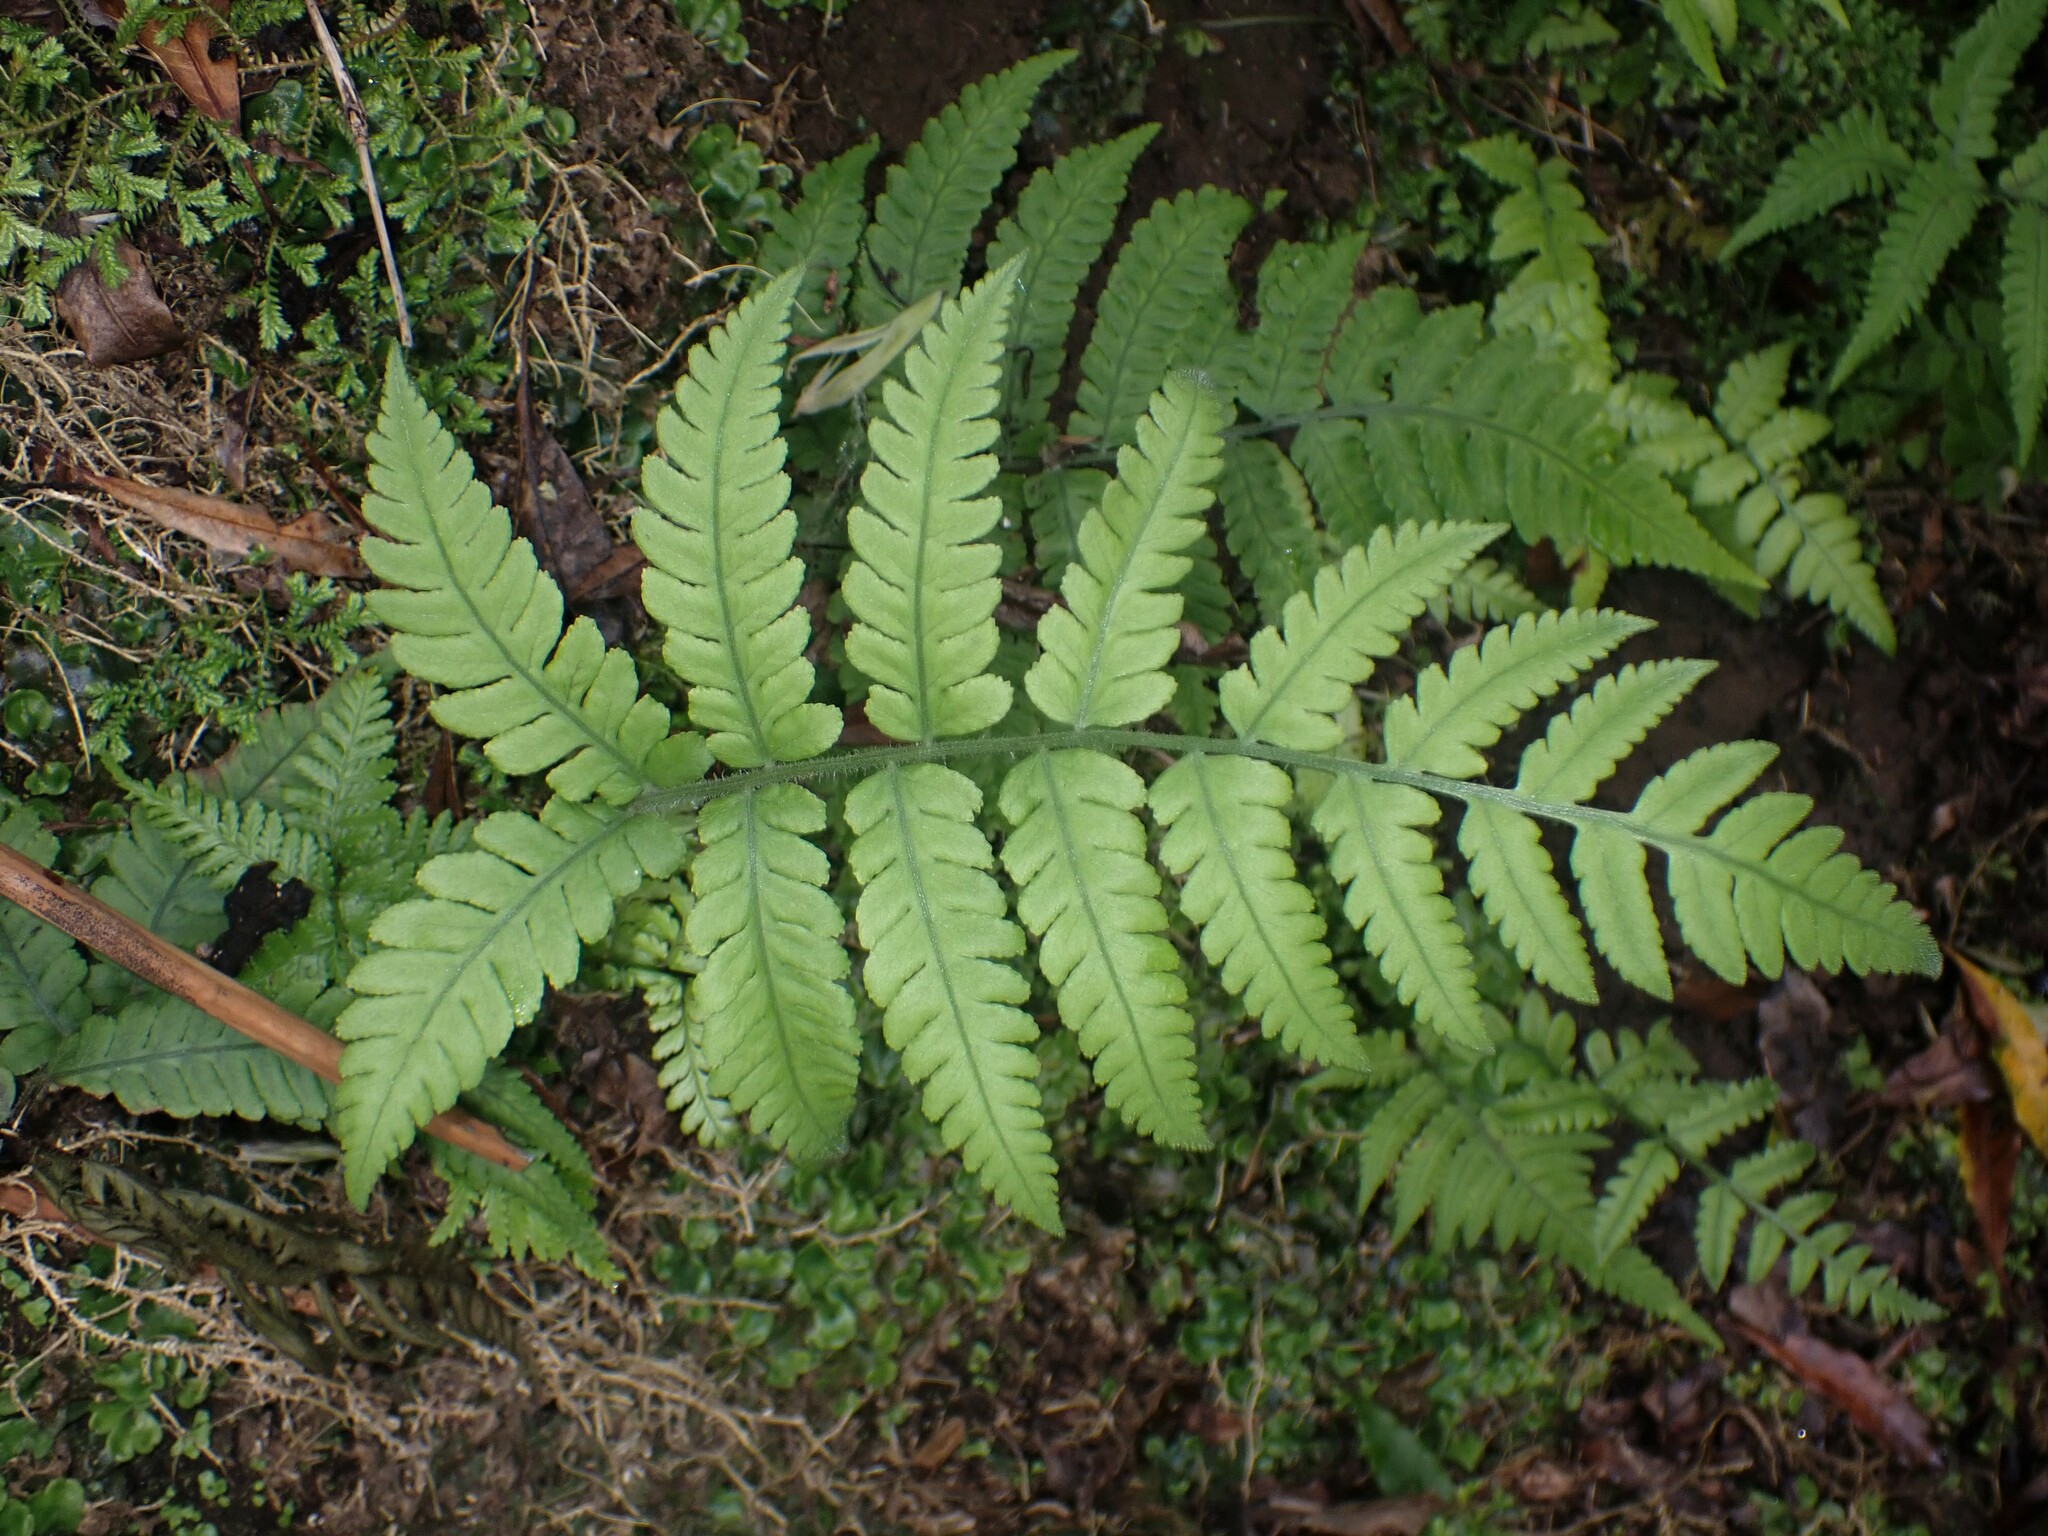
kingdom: Plantae
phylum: Tracheophyta
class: Polypodiopsida
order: Polypodiales
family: Athyriaceae
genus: Deparia
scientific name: Deparia petersenii
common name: Japanese false spleenwort
